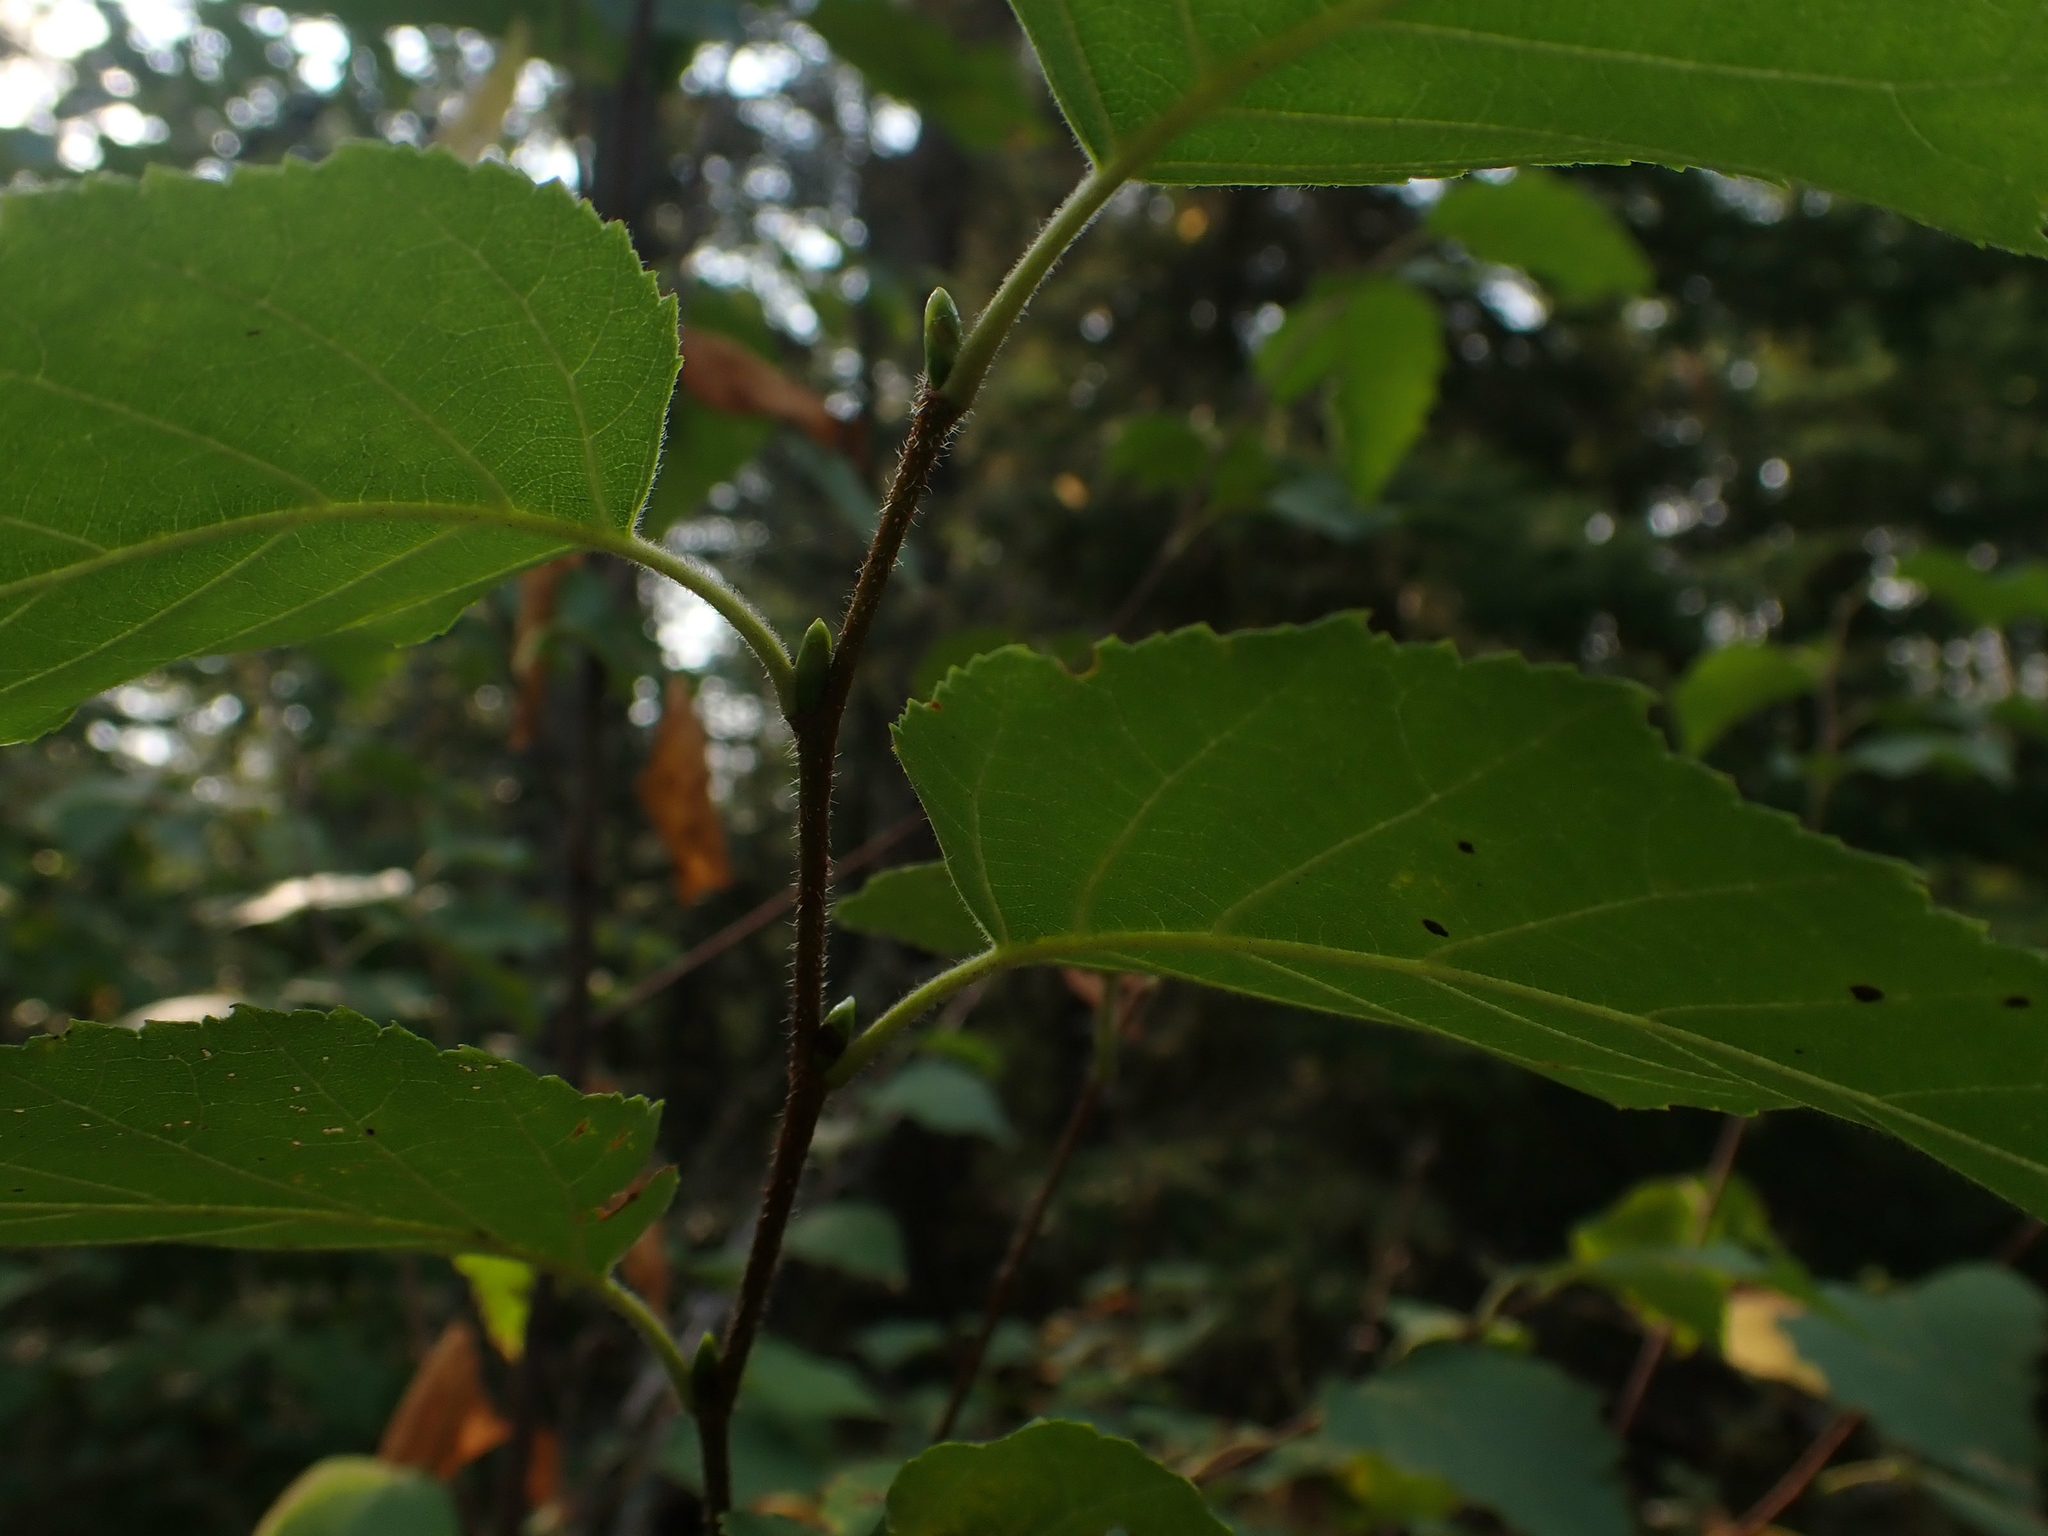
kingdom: Plantae
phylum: Tracheophyta
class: Magnoliopsida
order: Fagales
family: Betulaceae
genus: Betula
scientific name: Betula papyrifera
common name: Paper birch
